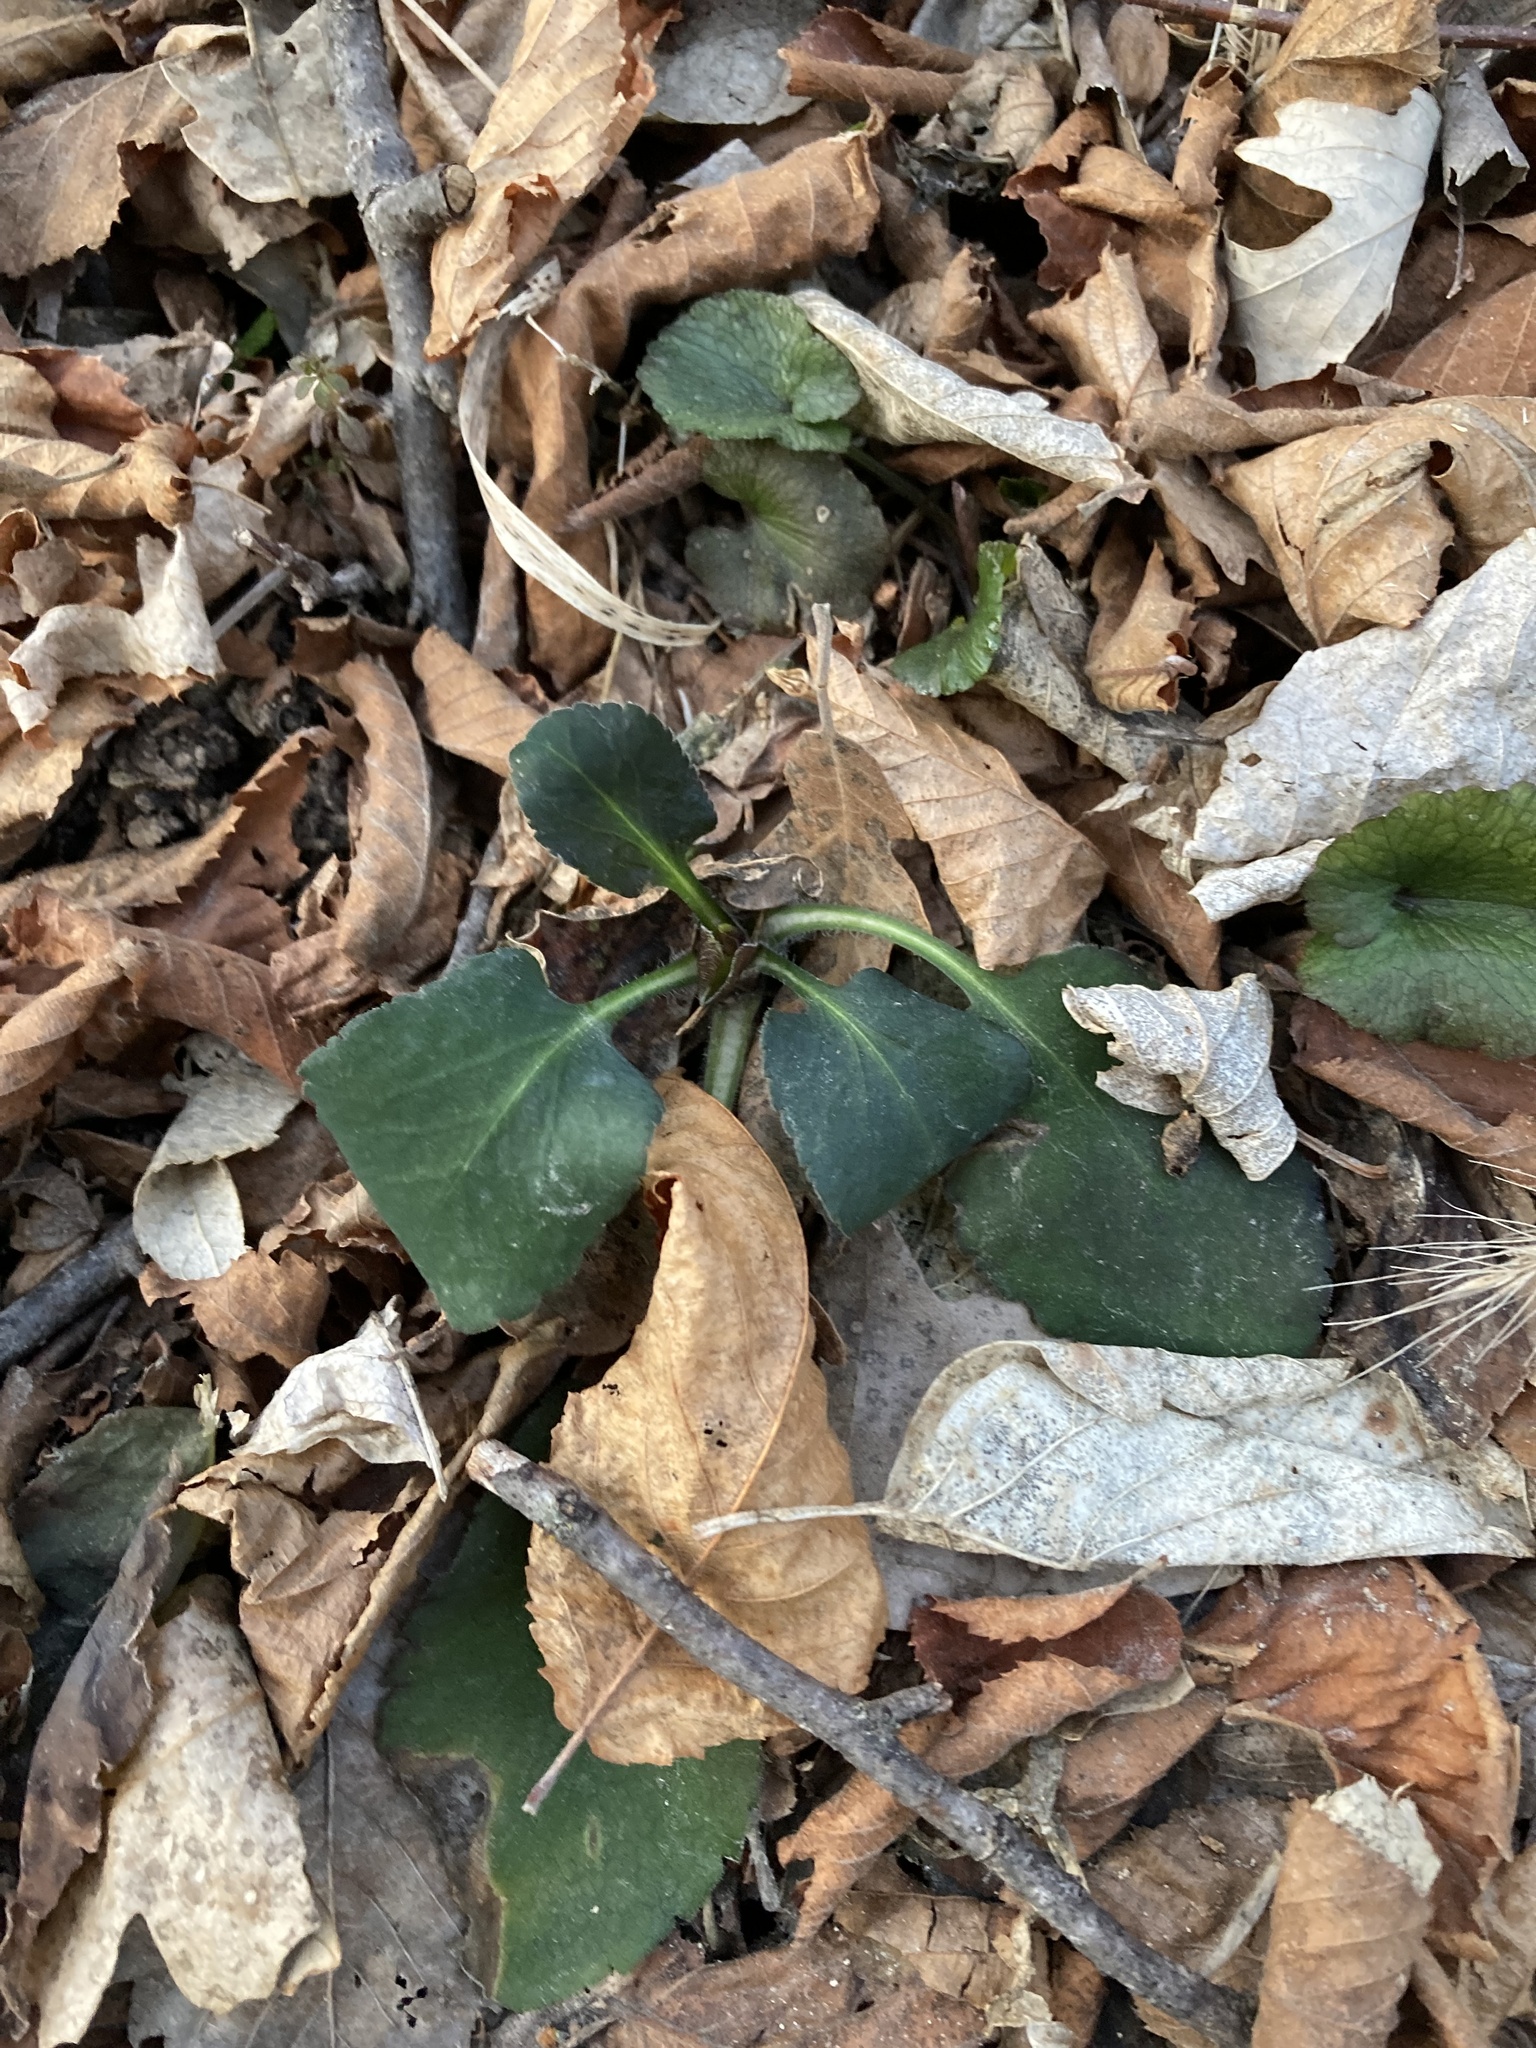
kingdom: Plantae
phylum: Tracheophyta
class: Magnoliopsida
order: Brassicales
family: Brassicaceae
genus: Hesperis
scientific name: Hesperis matronalis
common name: Dame's-violet
